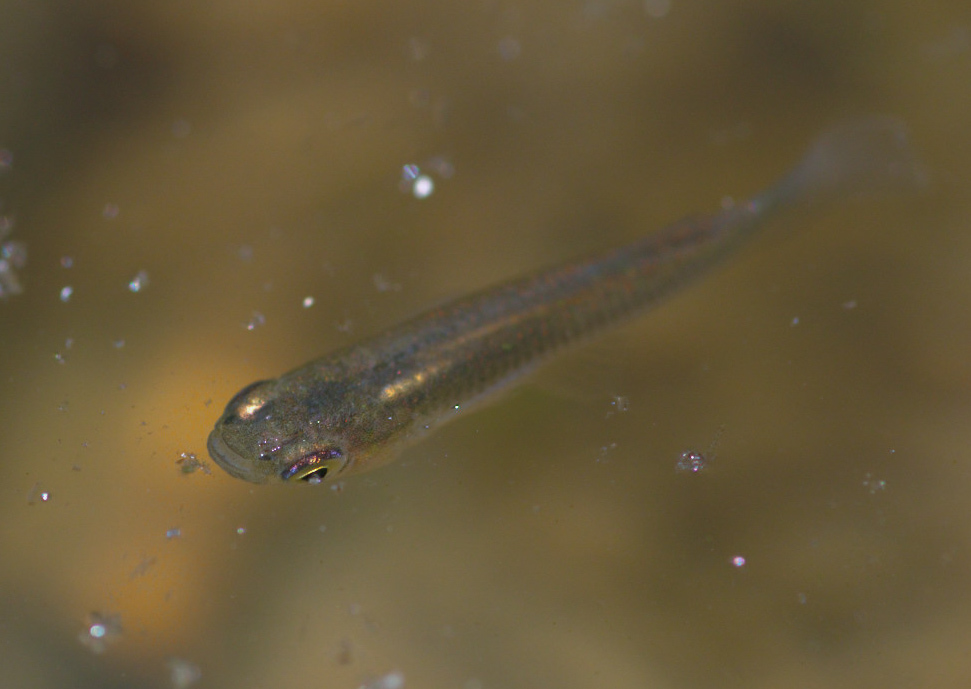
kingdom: Animalia
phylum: Chordata
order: Cyprinodontiformes
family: Poeciliidae
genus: Gambusia
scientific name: Gambusia affinis
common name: Mosquitofish
